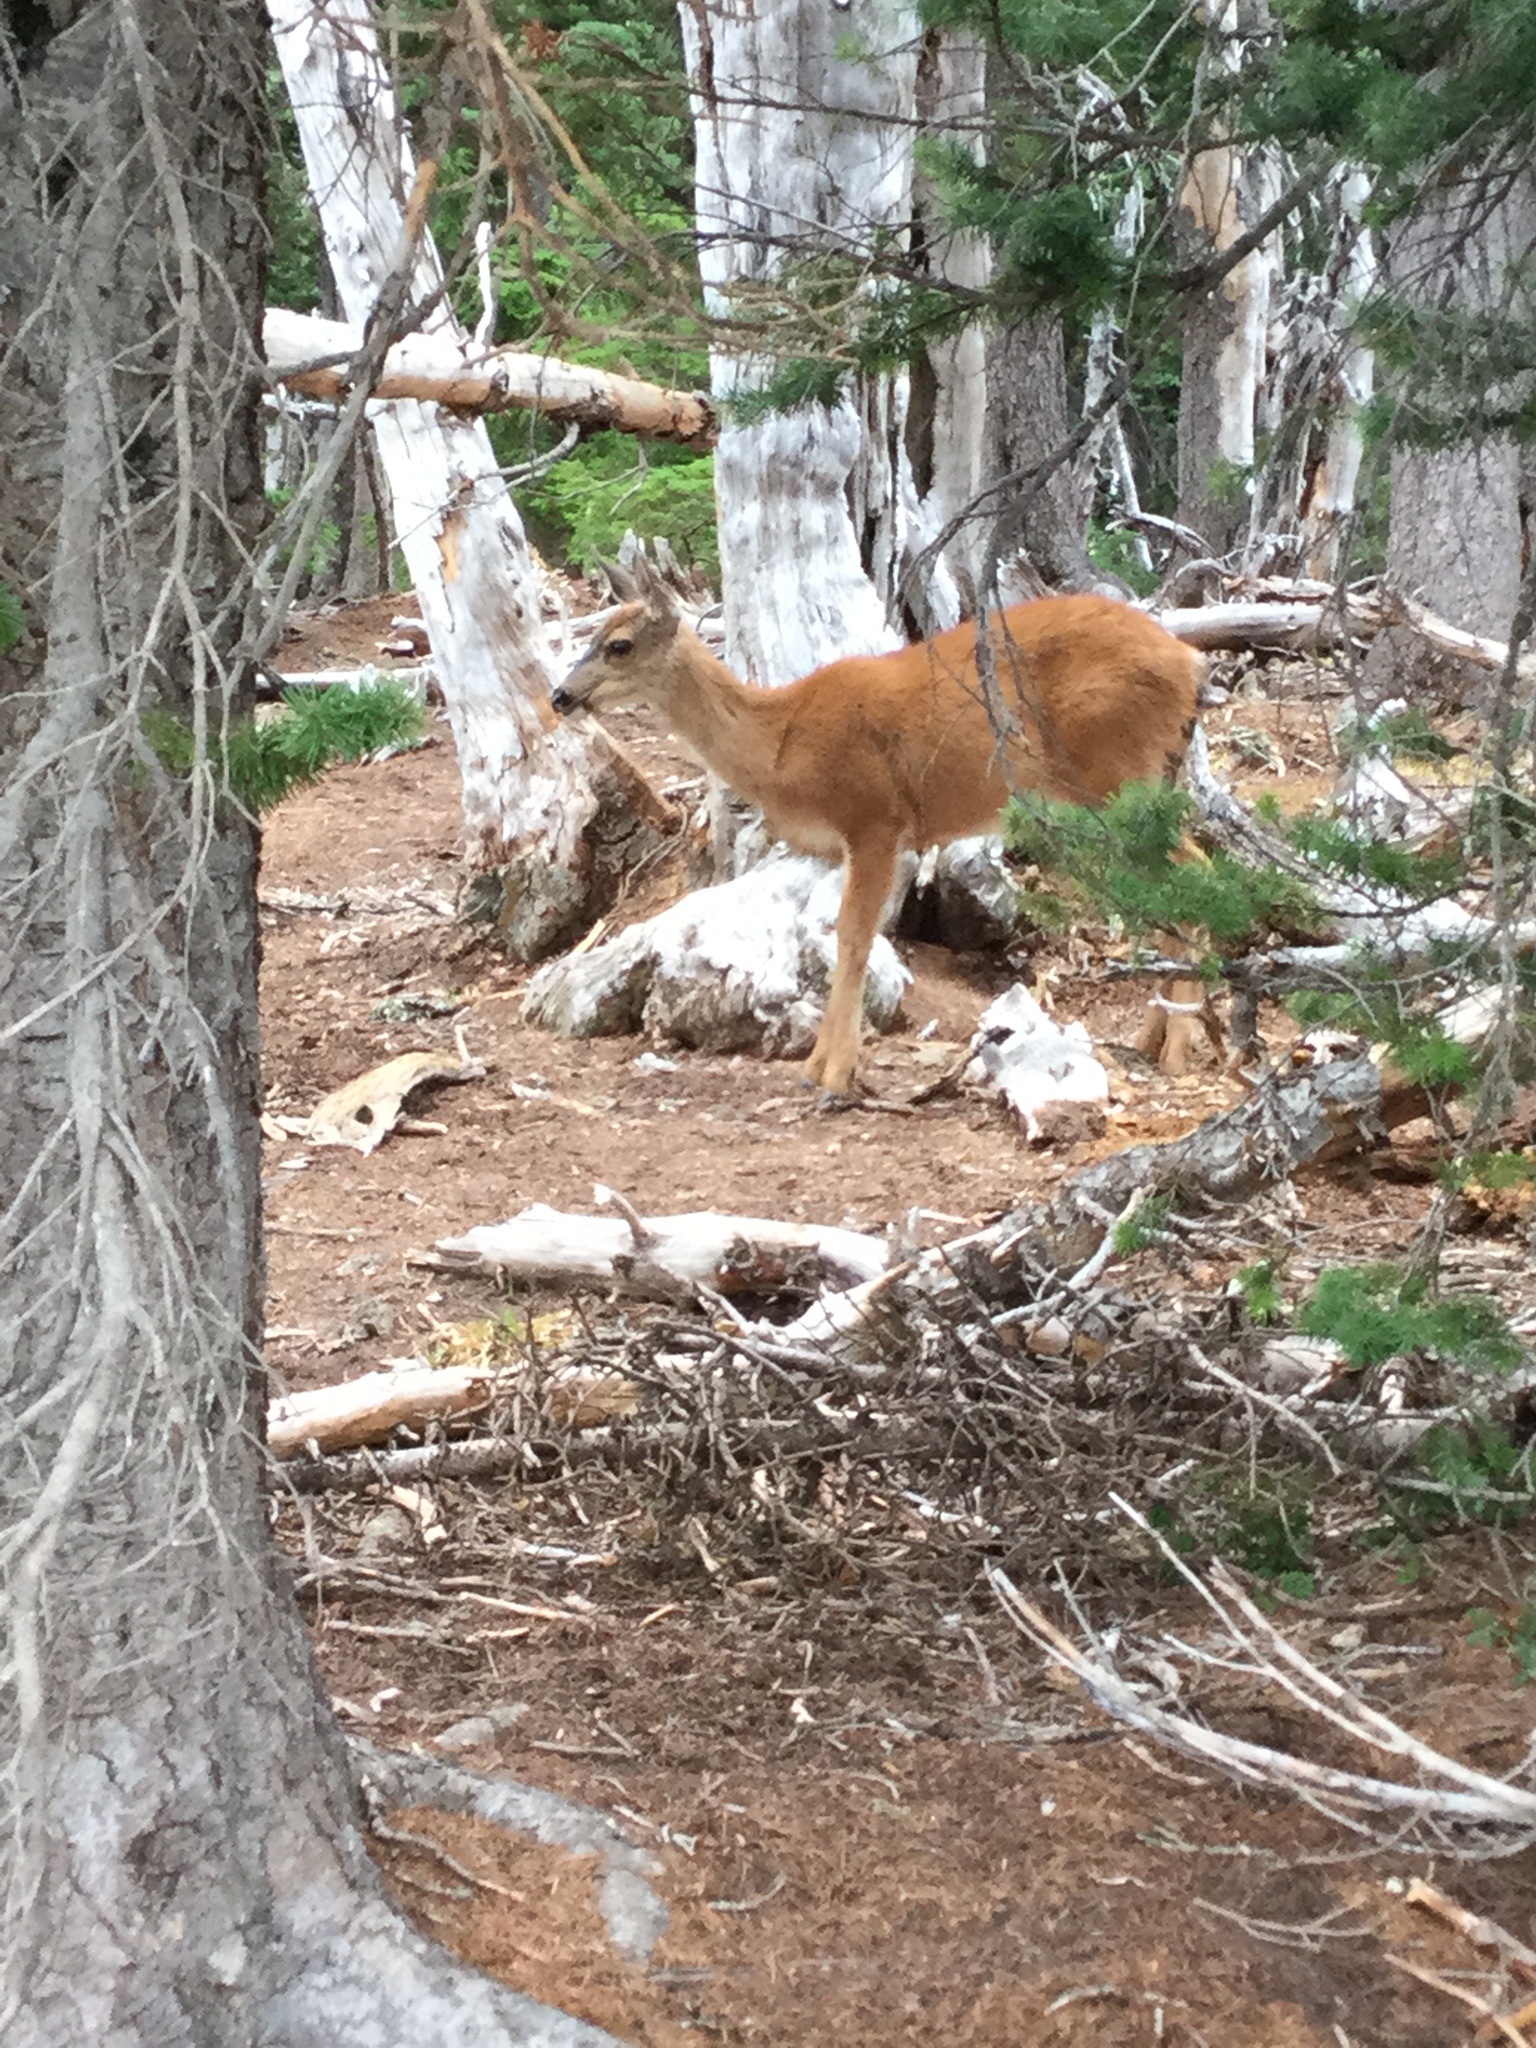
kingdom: Animalia
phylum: Chordata
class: Mammalia
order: Artiodactyla
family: Cervidae
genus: Odocoileus
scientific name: Odocoileus hemionus
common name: Mule deer
